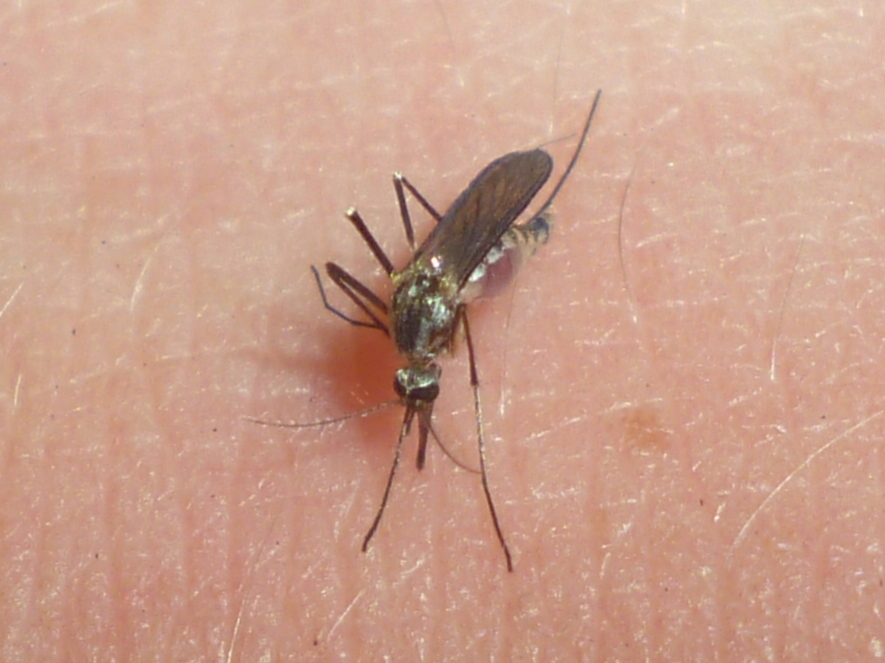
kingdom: Animalia
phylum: Arthropoda
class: Insecta
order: Diptera
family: Culicidae
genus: Aedes
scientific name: Aedes triseriatus
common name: Eastern treehole mosquito
